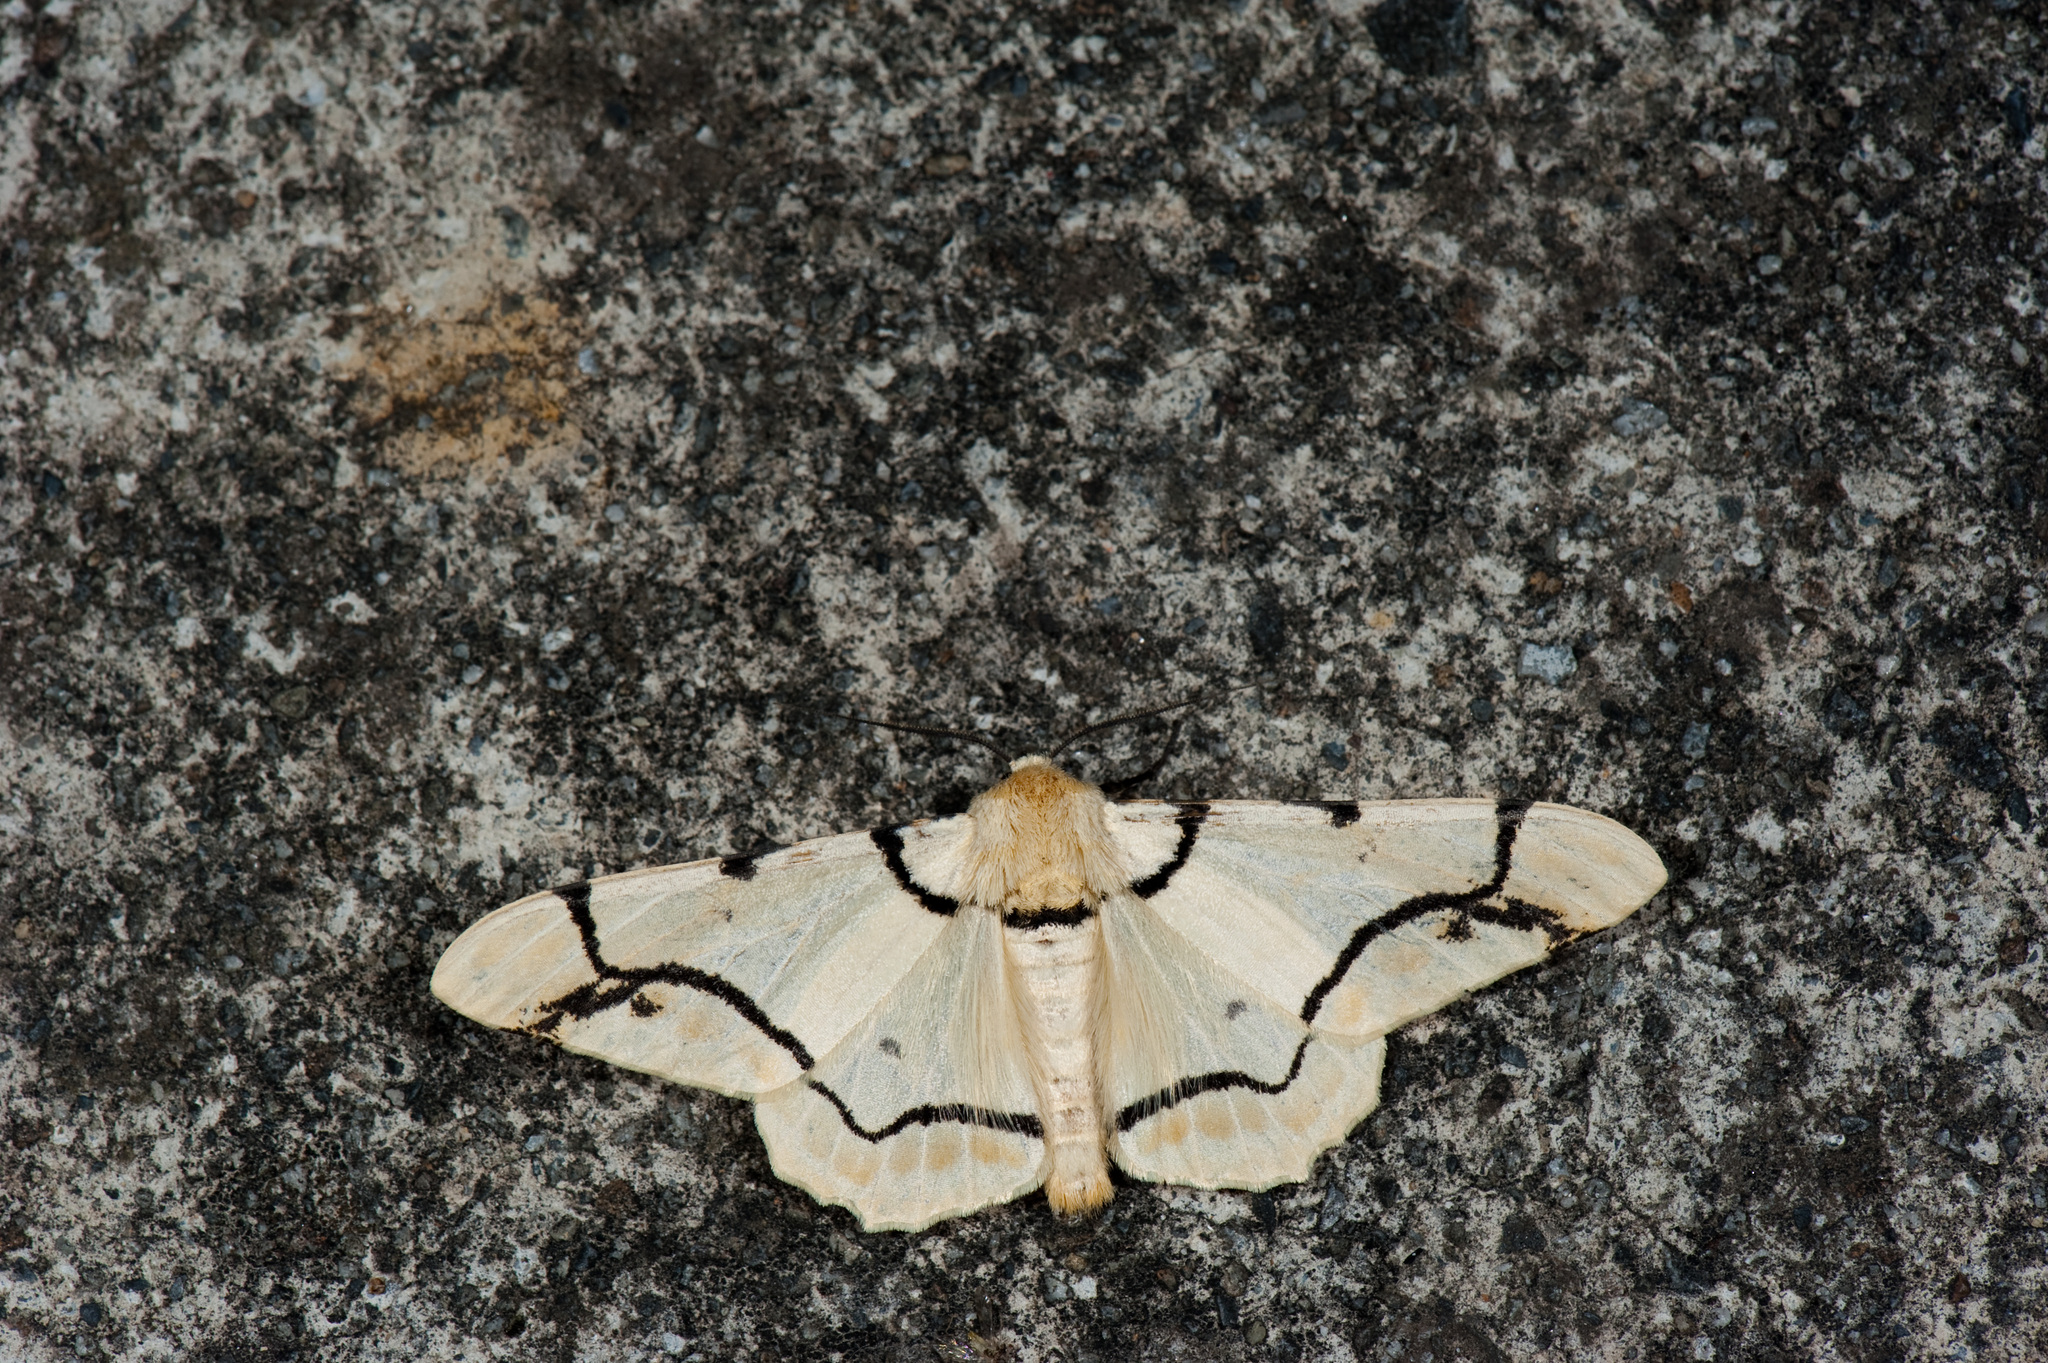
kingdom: Animalia
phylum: Arthropoda
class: Insecta
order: Lepidoptera
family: Geometridae
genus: Biston
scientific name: Biston perclara
